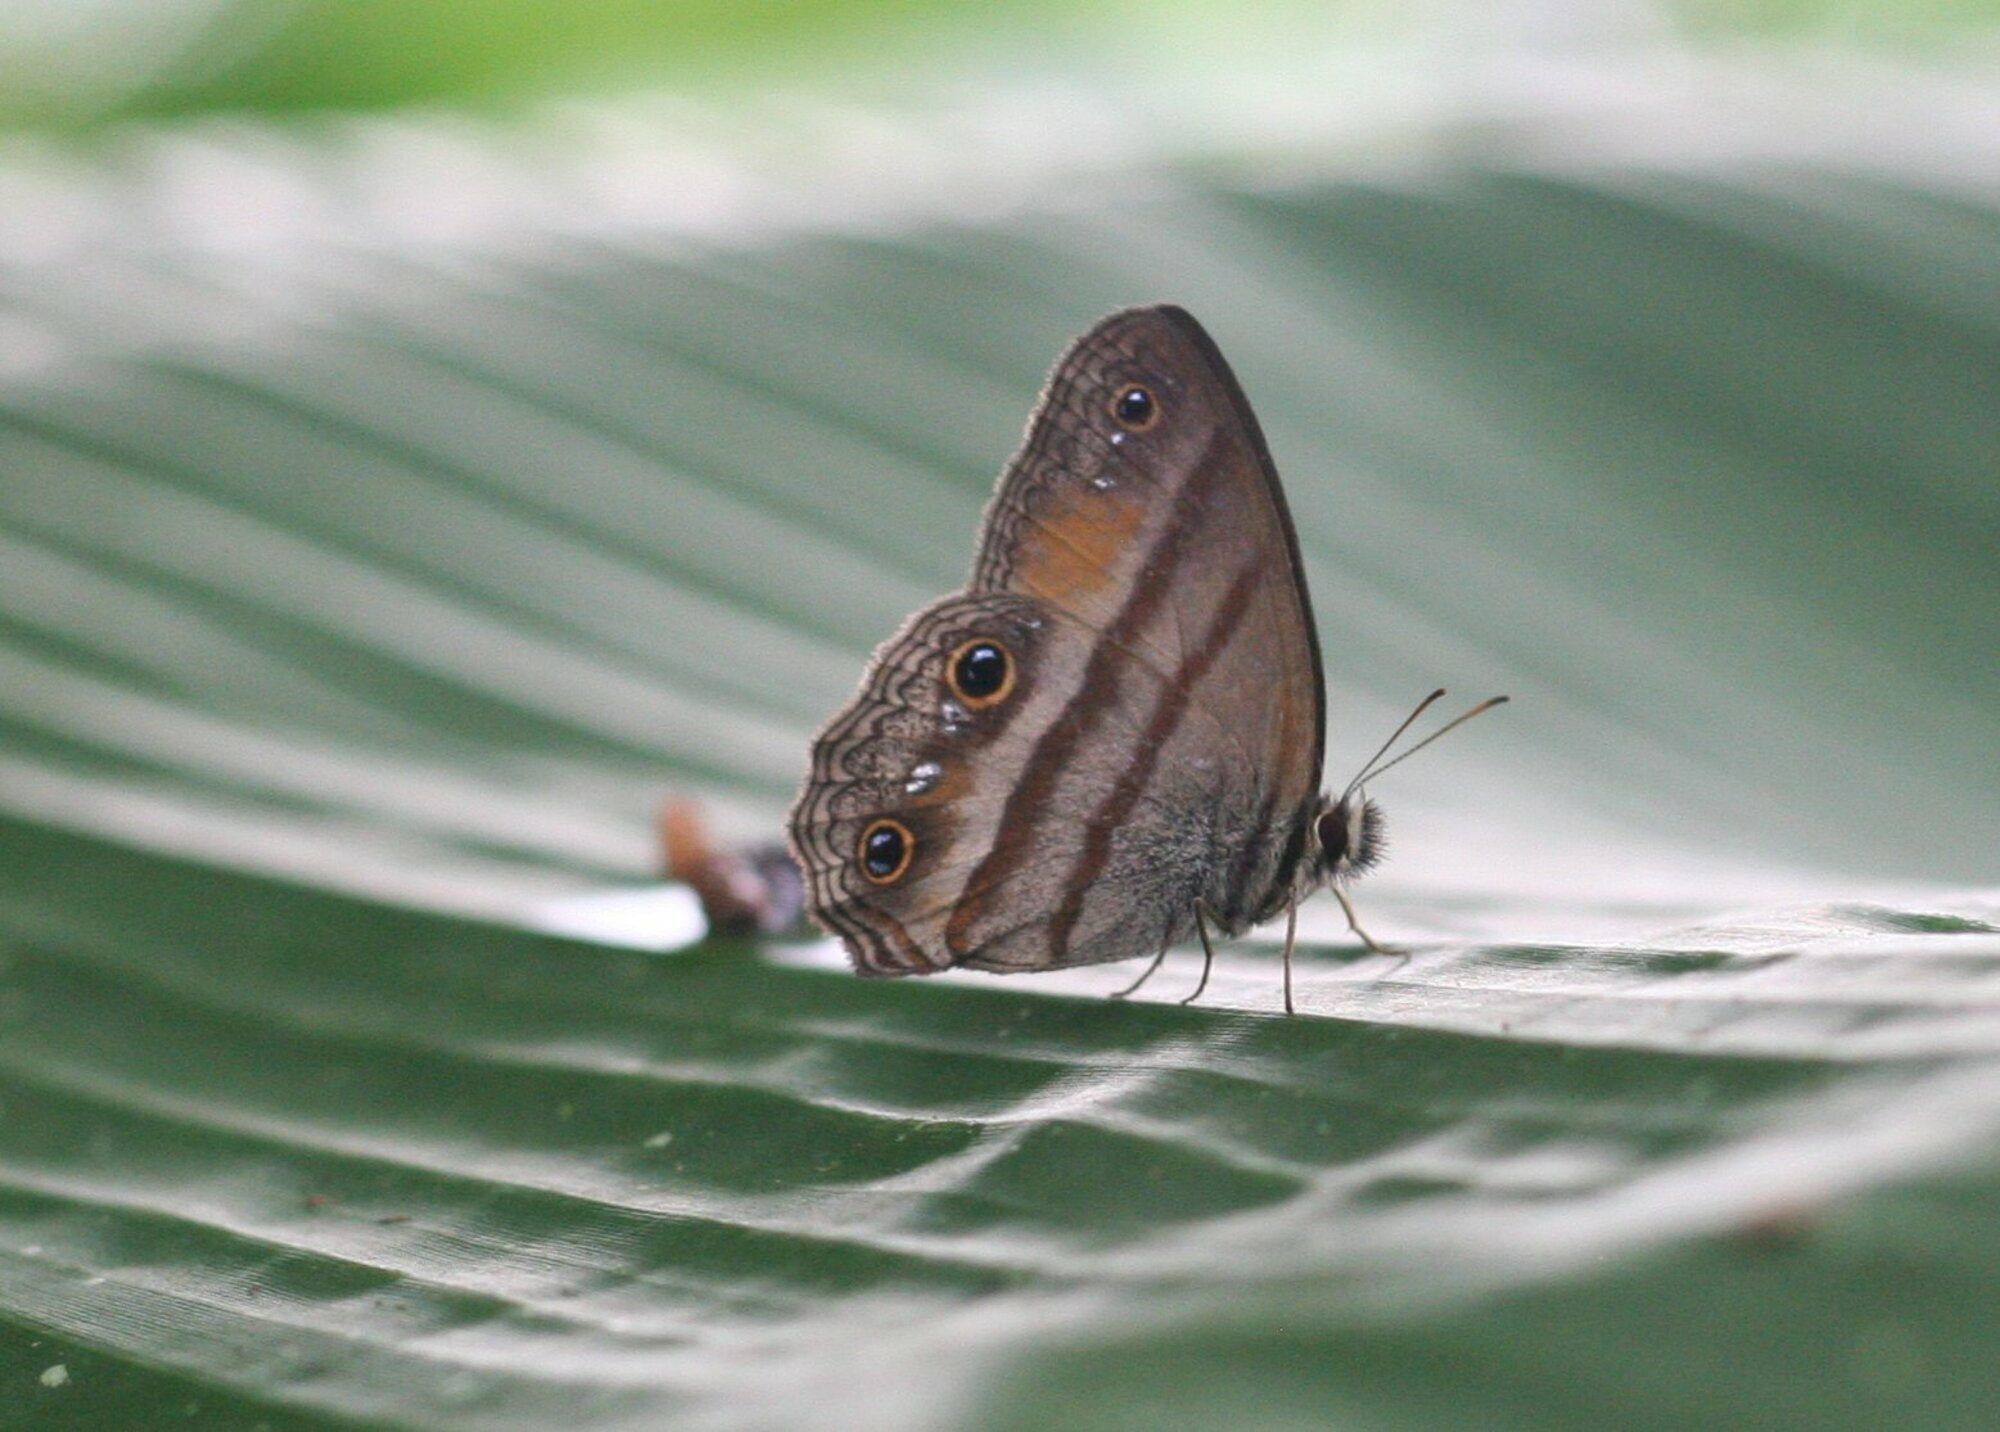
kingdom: Animalia
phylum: Arthropoda
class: Insecta
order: Lepidoptera
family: Nymphalidae
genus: Argyreuptychia
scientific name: Argyreuptychia penelope
